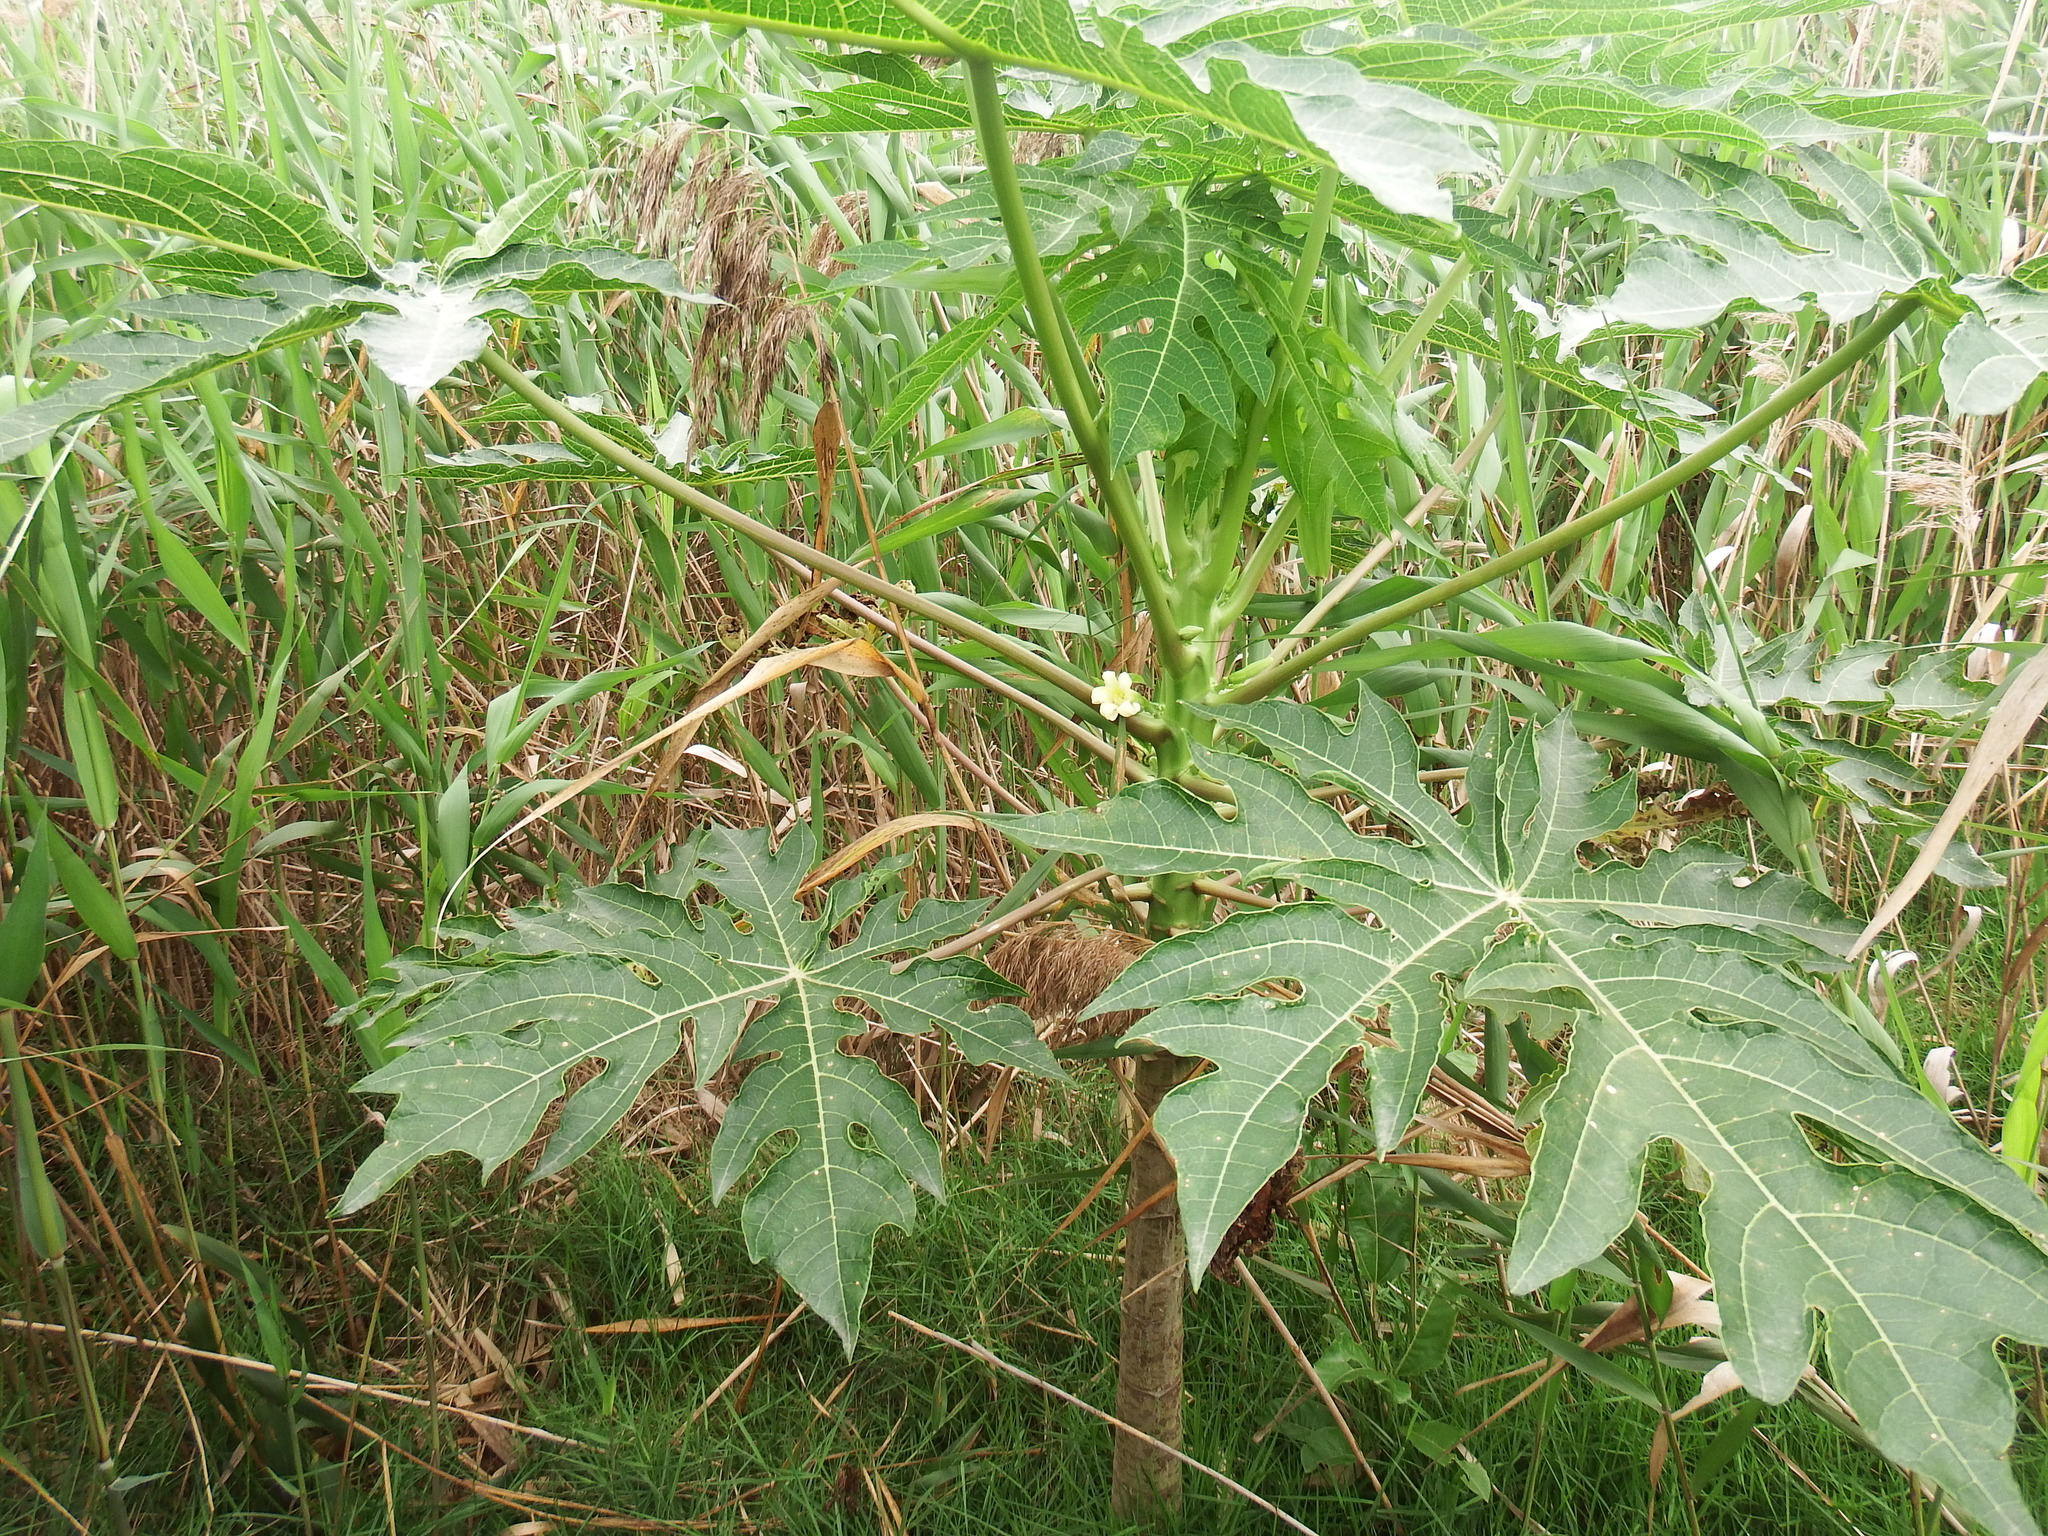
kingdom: Plantae
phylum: Tracheophyta
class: Magnoliopsida
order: Brassicales
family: Caricaceae
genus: Carica
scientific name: Carica papaya
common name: Papaya
